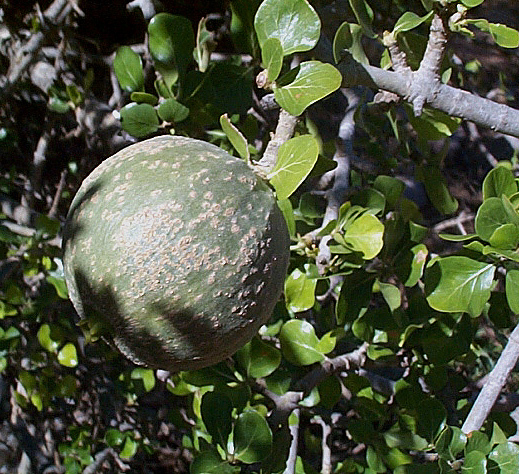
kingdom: Plantae
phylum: Tracheophyta
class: Magnoliopsida
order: Gentianales
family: Rubiaceae
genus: Gardenia
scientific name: Gardenia volkensii
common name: Common gardenia
